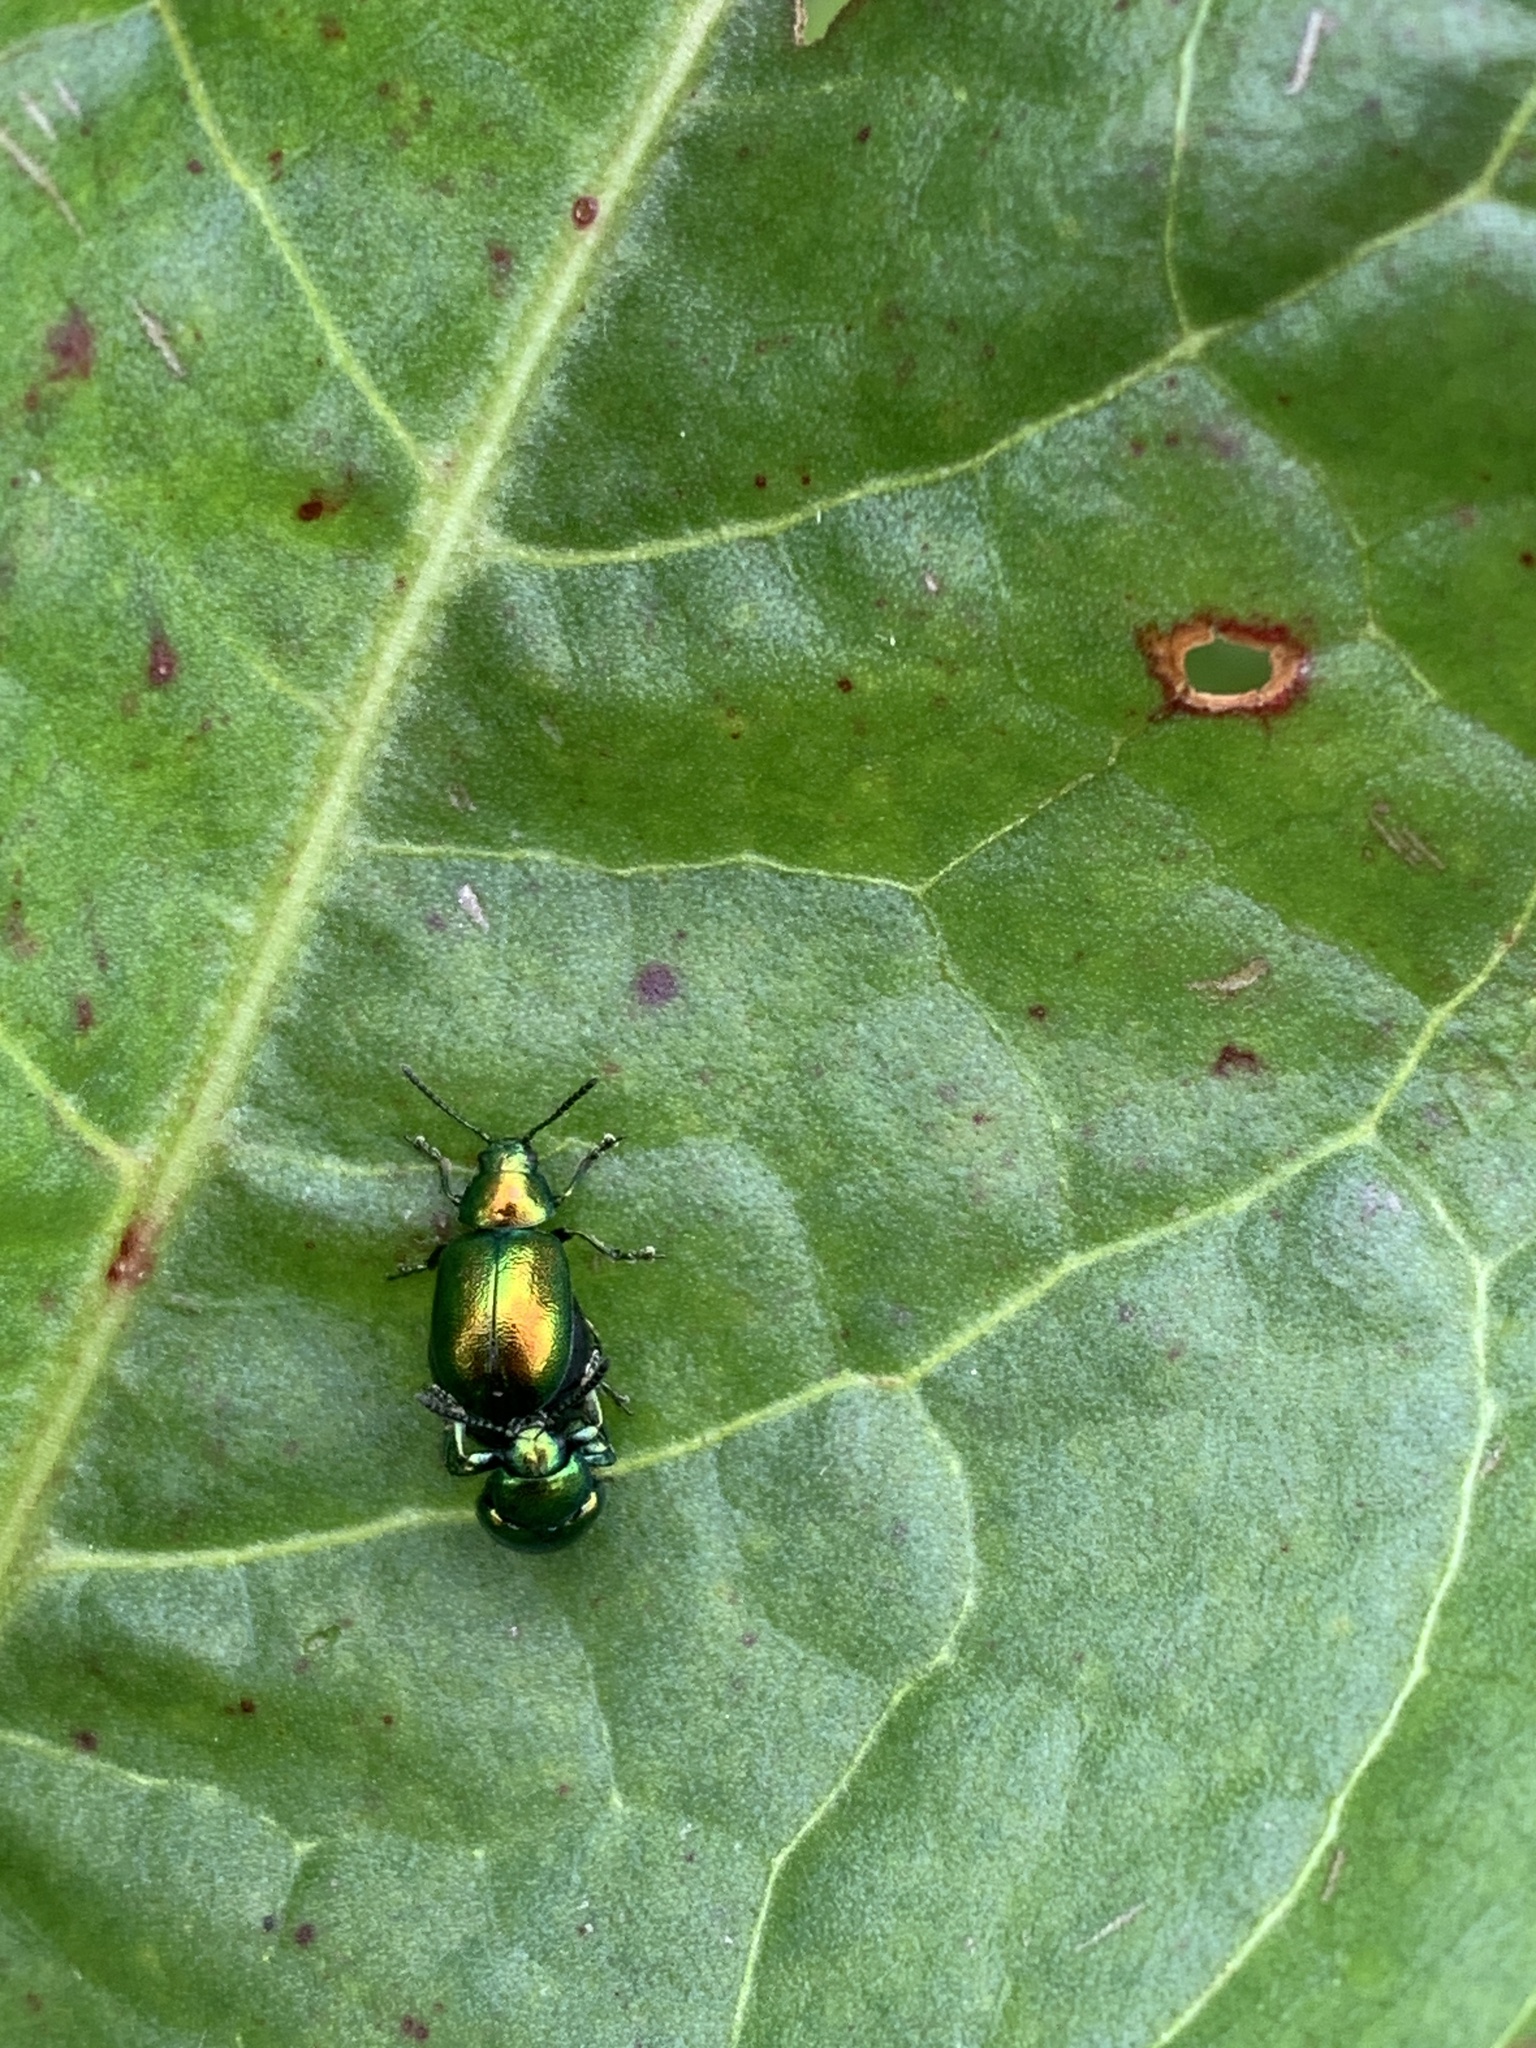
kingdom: Animalia
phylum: Arthropoda
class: Insecta
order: Coleoptera
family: Chrysomelidae
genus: Gastrophysa
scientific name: Gastrophysa viridula
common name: Green dock beetle
